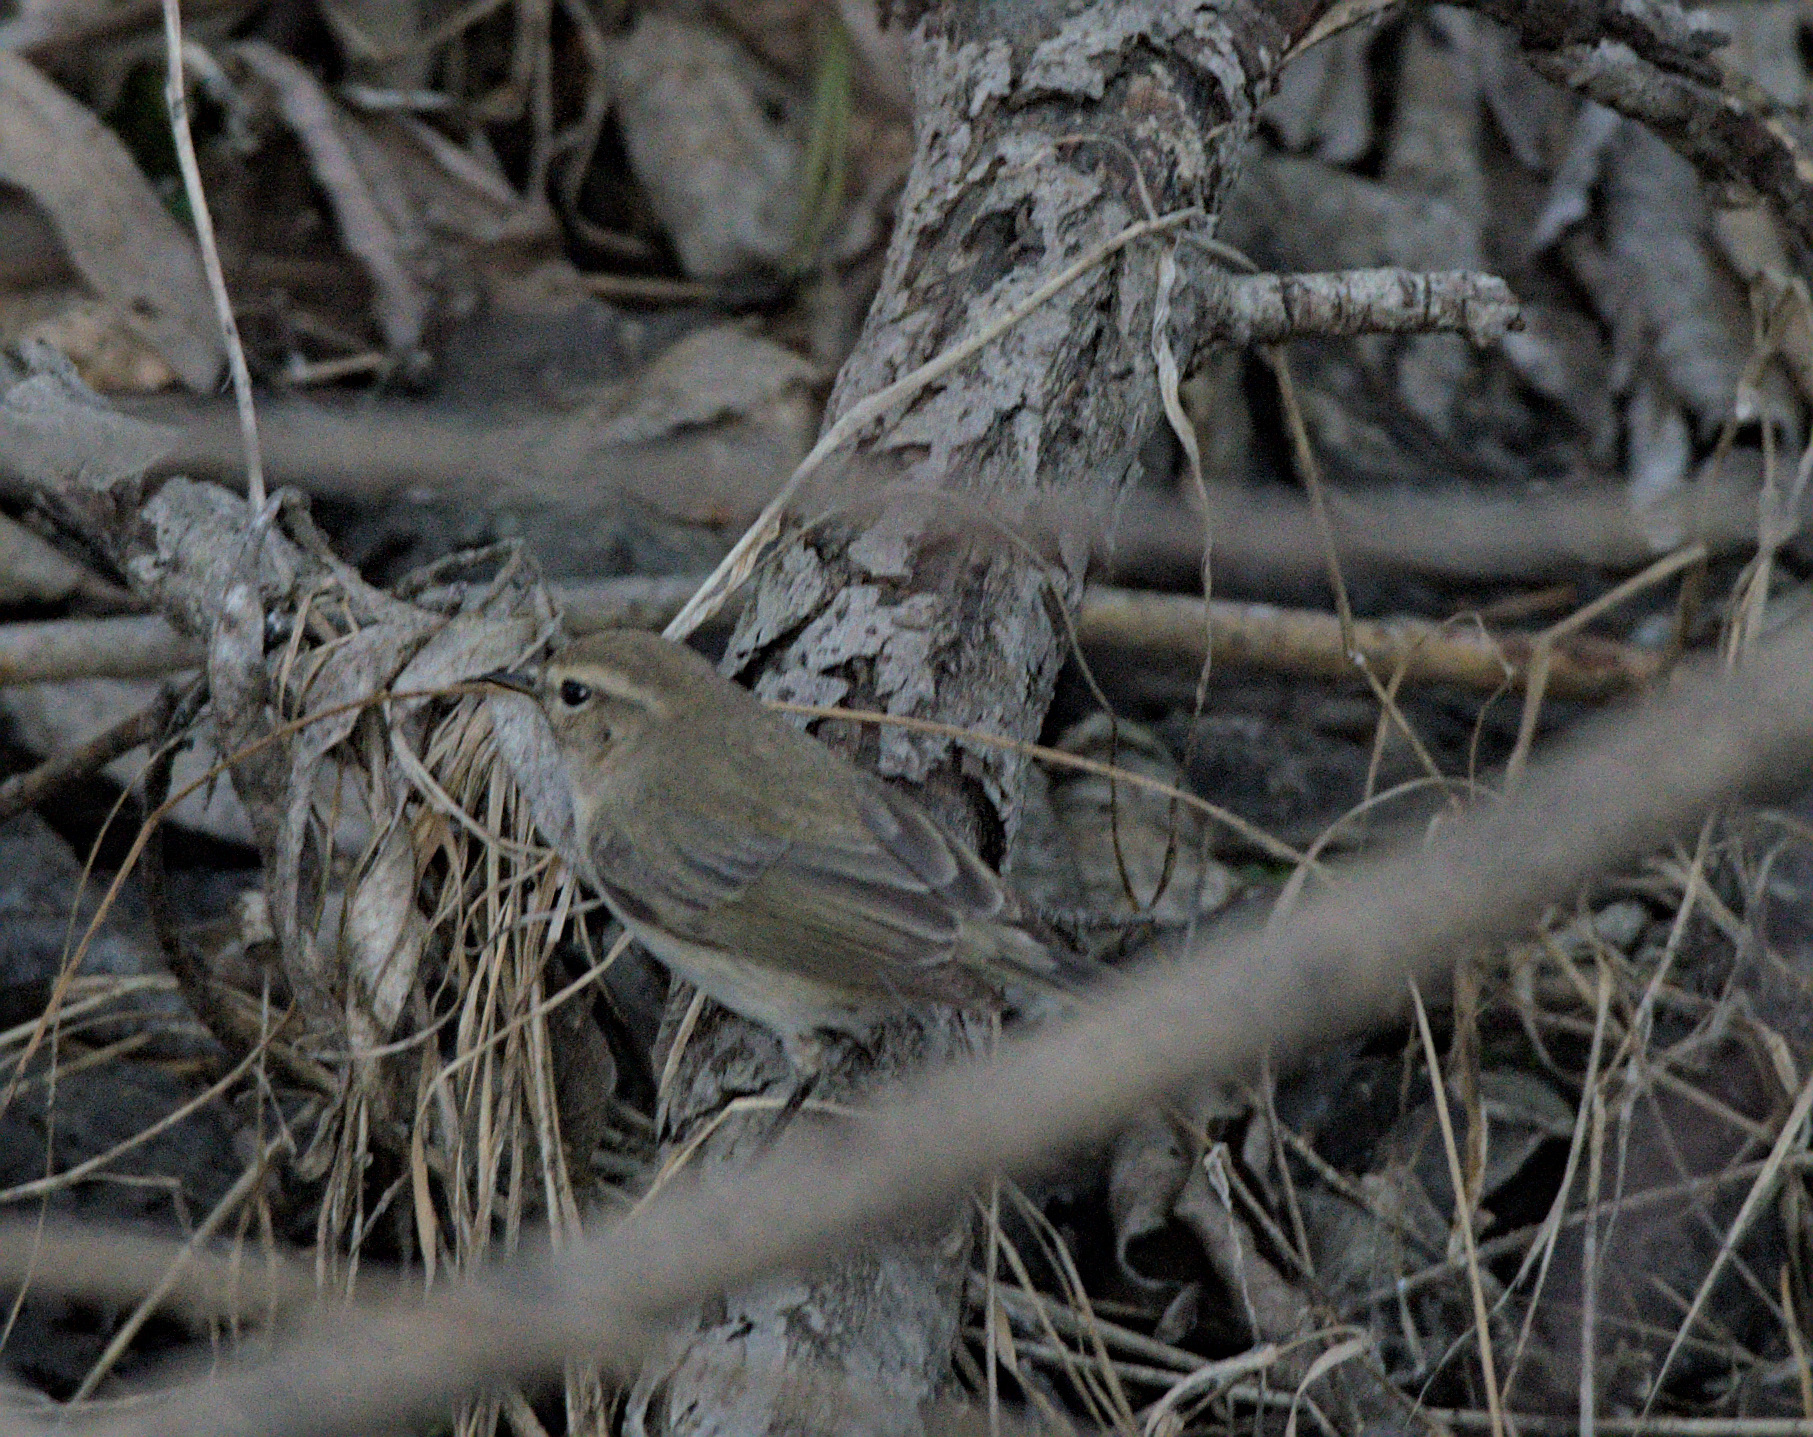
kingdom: Animalia
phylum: Chordata
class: Aves
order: Passeriformes
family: Phylloscopidae
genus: Phylloscopus
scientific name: Phylloscopus collybita
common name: Common chiffchaff
